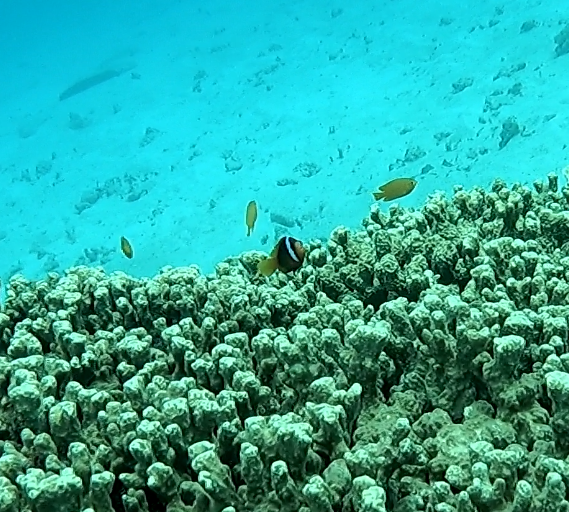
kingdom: Animalia
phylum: Chordata
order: Perciformes
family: Pomacentridae
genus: Amphiprion
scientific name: Amphiprion melanopus
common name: Black anemonefish
